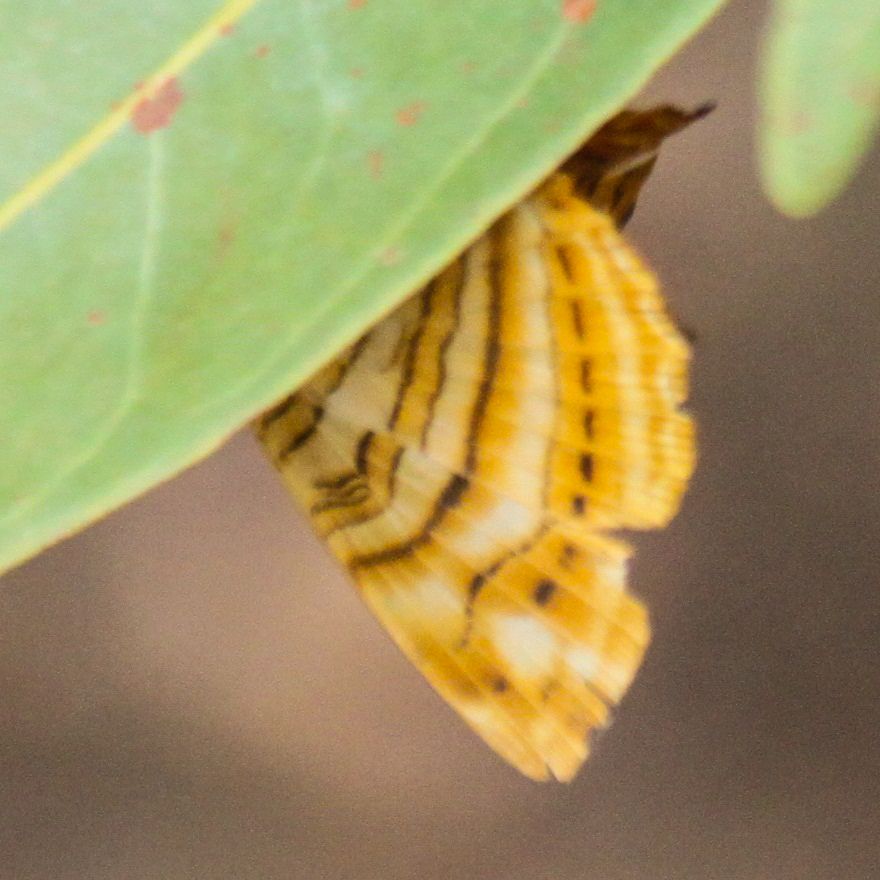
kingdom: Animalia
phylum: Arthropoda
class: Insecta
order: Lepidoptera
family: Nymphalidae
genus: Chersonesia
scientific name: Chersonesia intermedia
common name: Intermediate maplet
